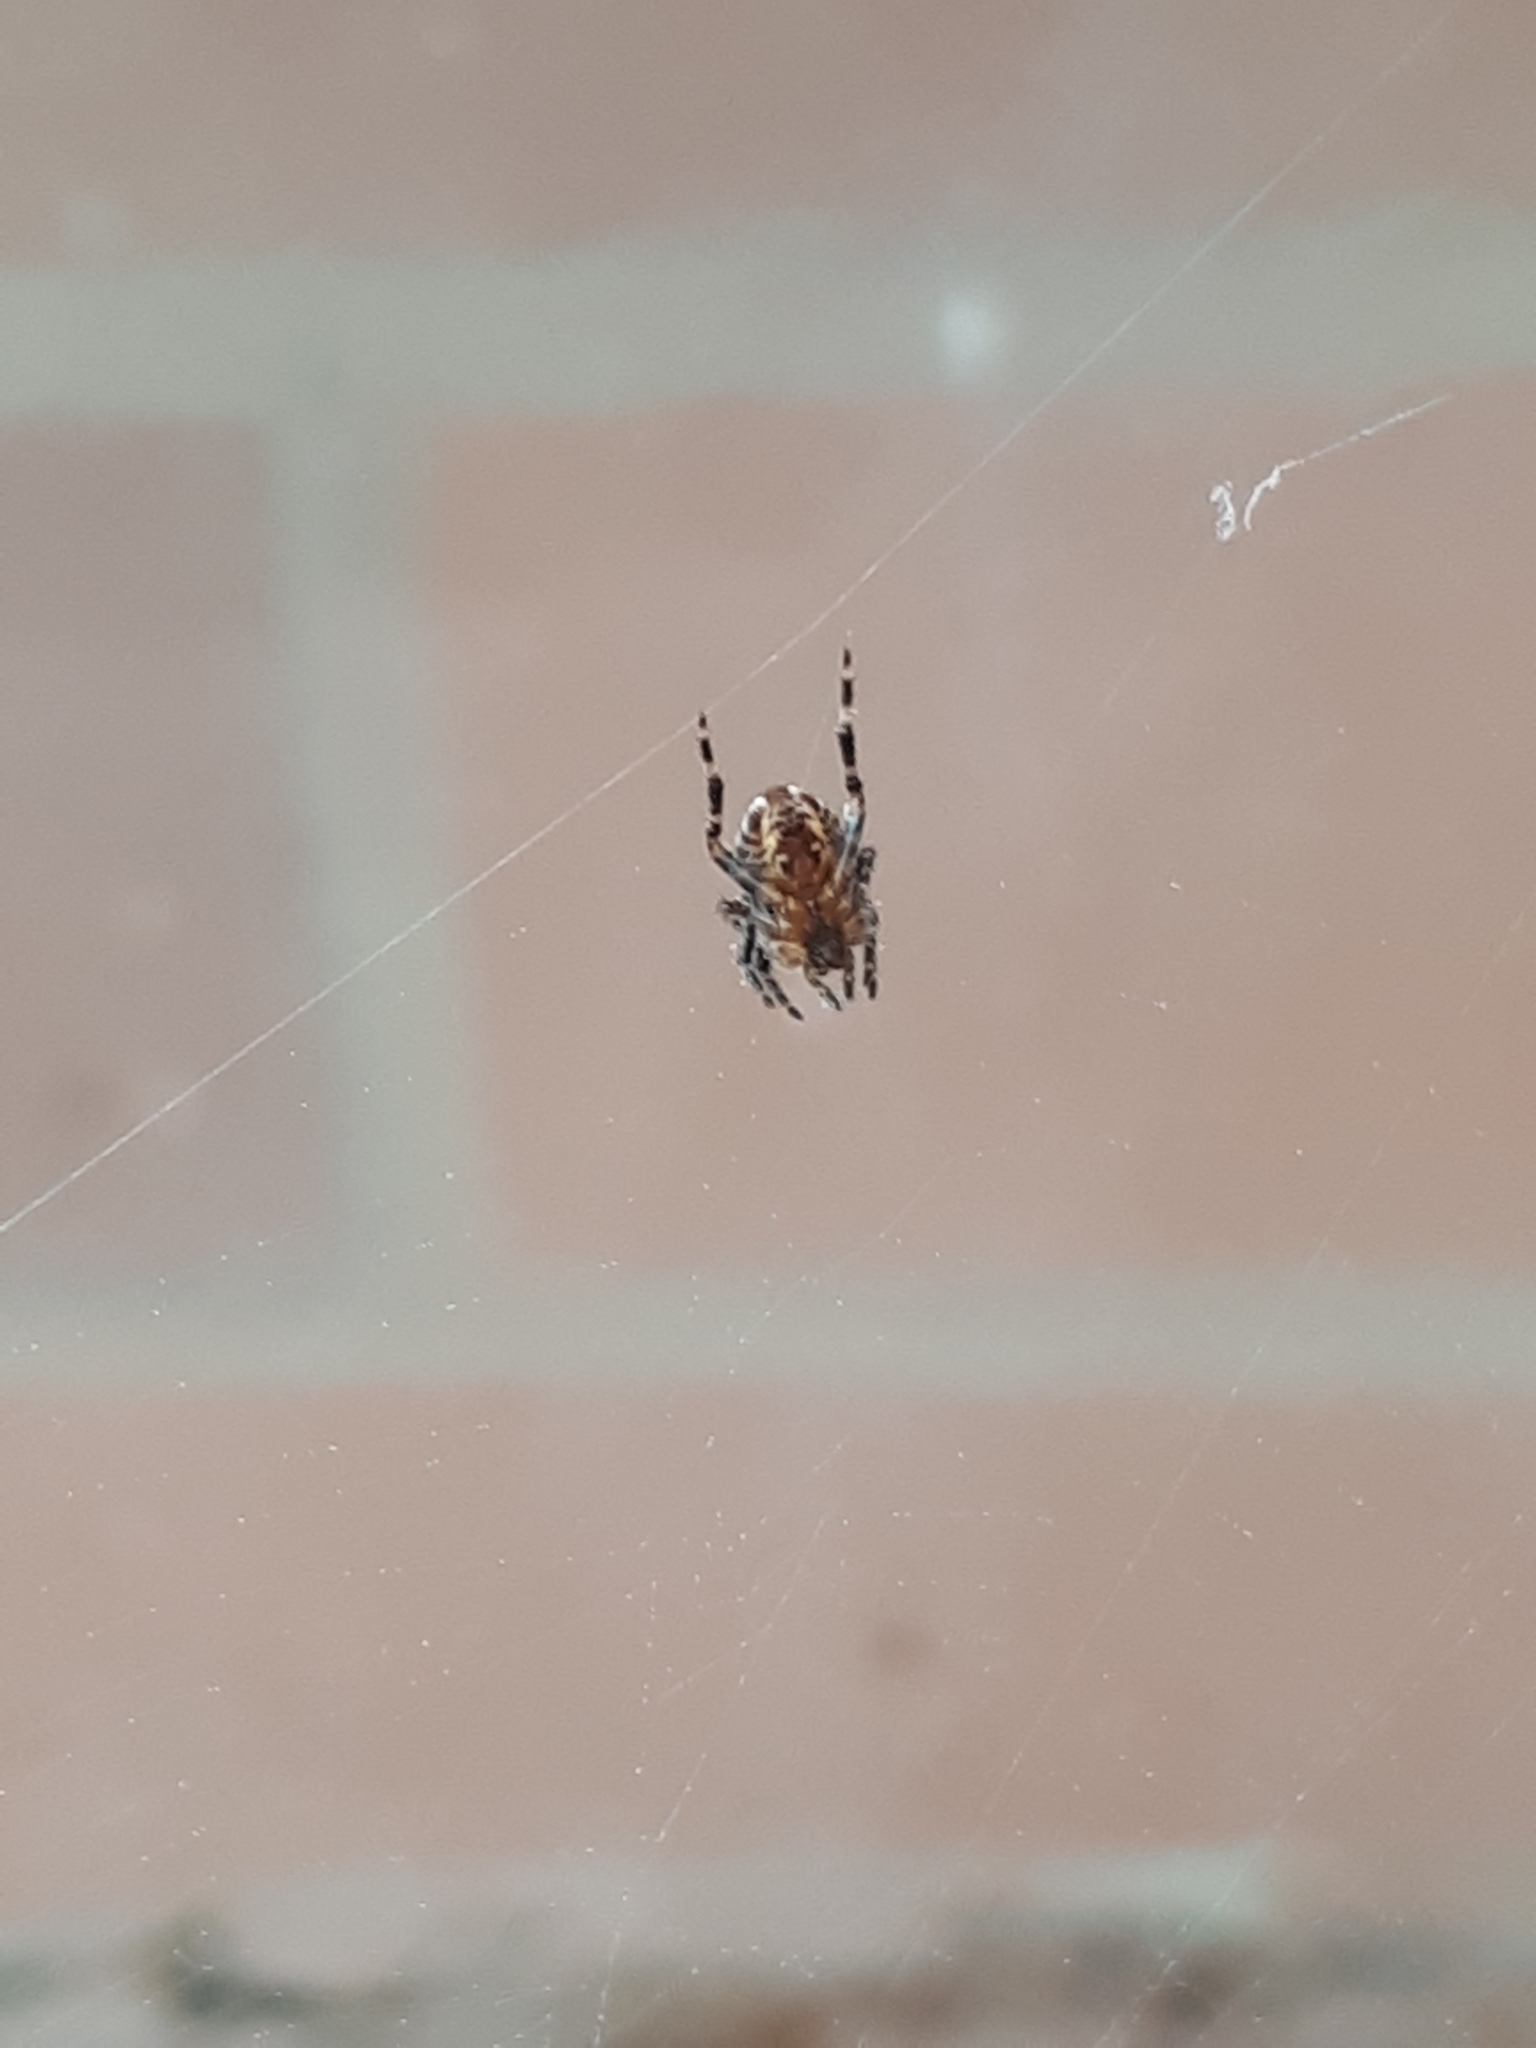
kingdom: Animalia
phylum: Arthropoda
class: Arachnida
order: Araneae
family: Araneidae
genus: Araneus
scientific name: Araneus diadematus
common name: Cross orbweaver
